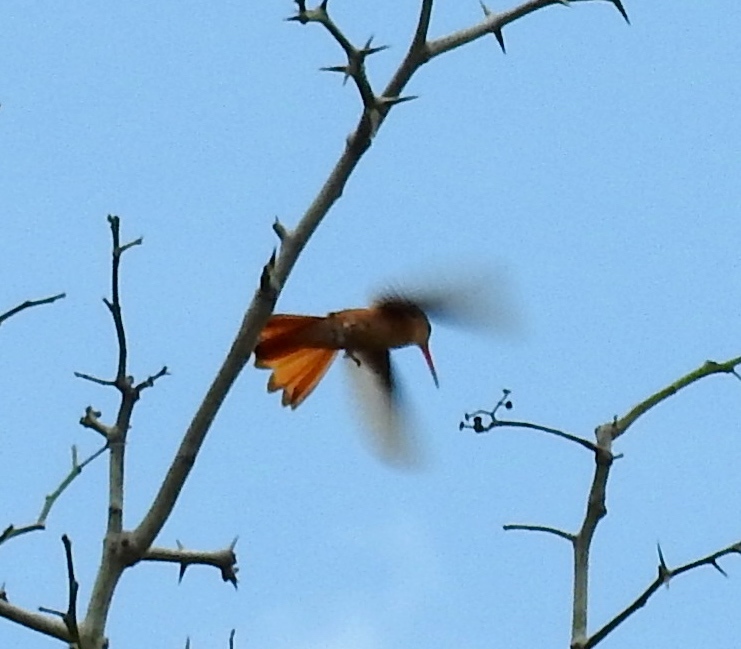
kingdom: Animalia
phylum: Chordata
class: Aves
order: Apodiformes
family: Trochilidae
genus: Amazilia
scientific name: Amazilia rutila
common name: Cinnamon hummingbird
